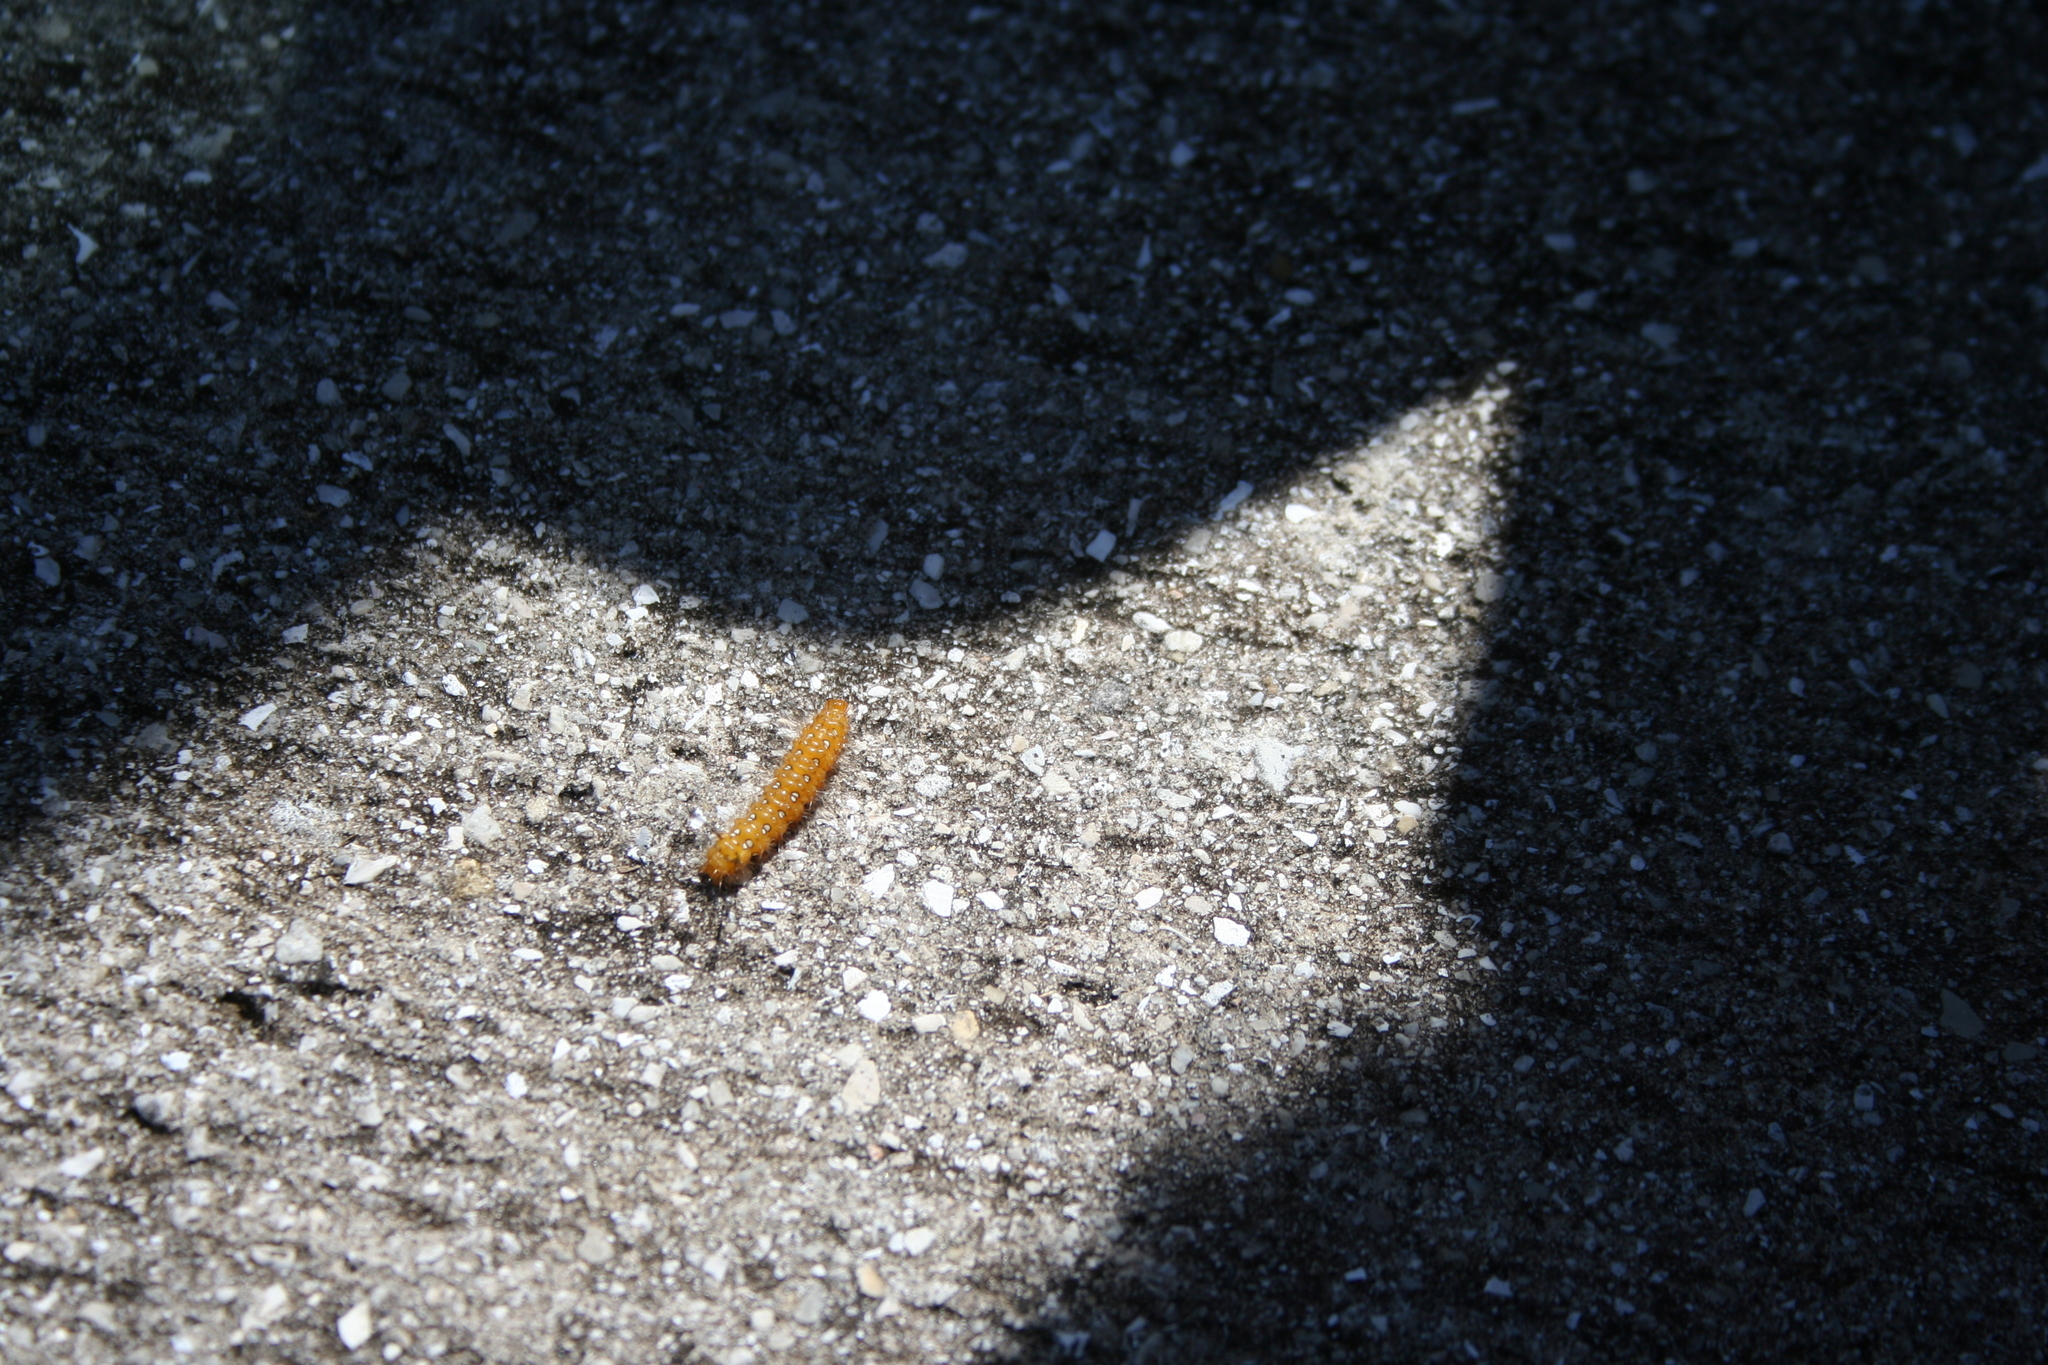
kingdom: Animalia
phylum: Arthropoda
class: Insecta
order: Lepidoptera
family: Erebidae
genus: Empyreuma
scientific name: Empyreuma pugione
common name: Spotted oleander caterpillar moth
